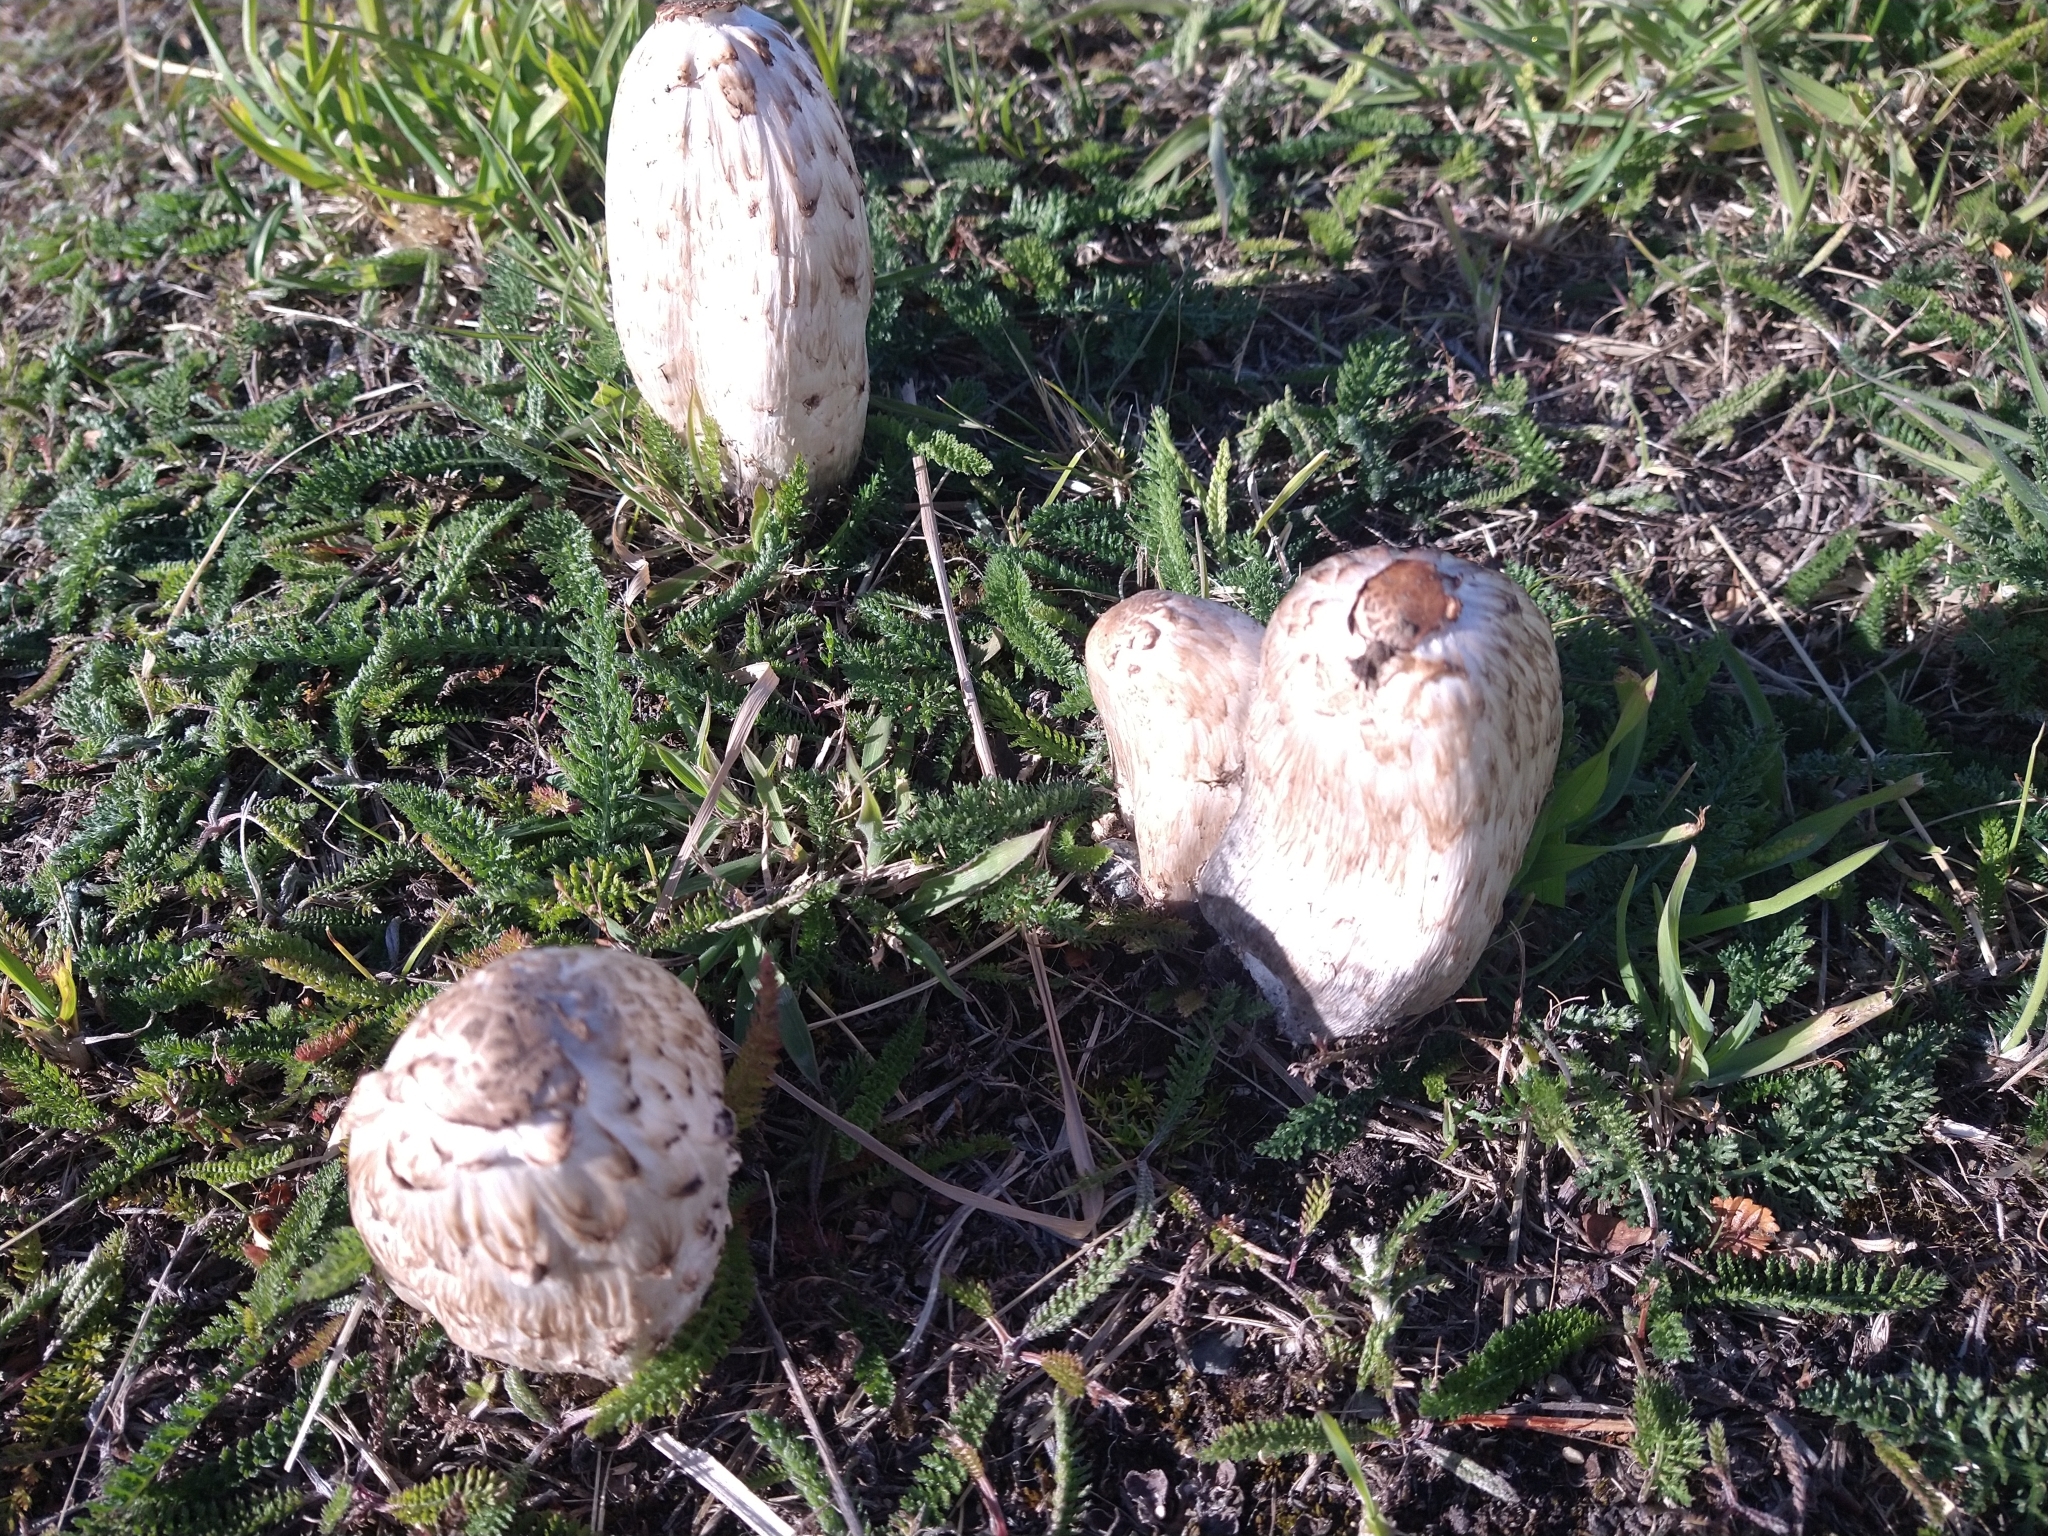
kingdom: Fungi
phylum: Basidiomycota
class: Agaricomycetes
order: Agaricales
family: Agaricaceae
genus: Coprinus
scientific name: Coprinus comatus
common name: Lawyer's wig
